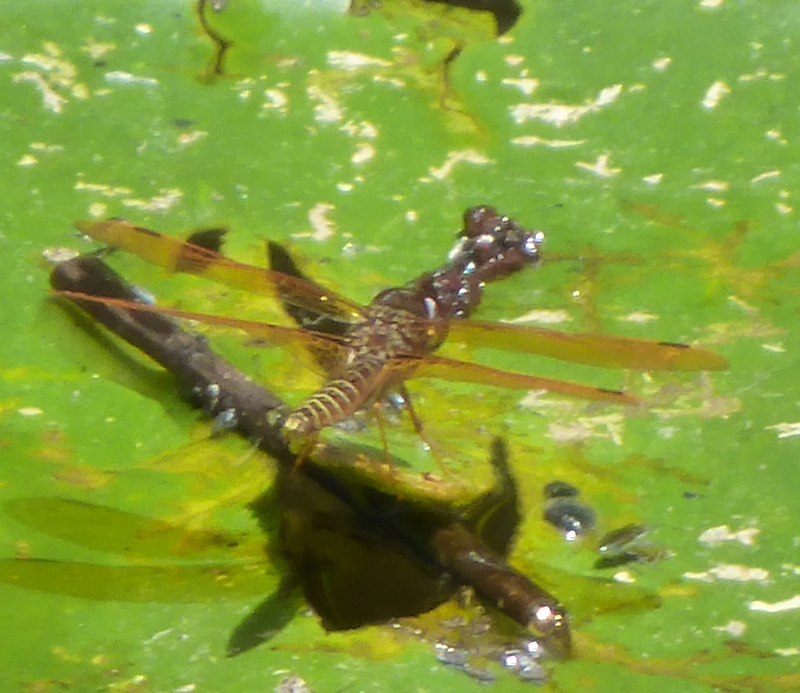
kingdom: Animalia
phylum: Arthropoda
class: Insecta
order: Odonata
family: Libellulidae
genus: Perithemis
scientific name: Perithemis tenera
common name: Eastern amberwing
